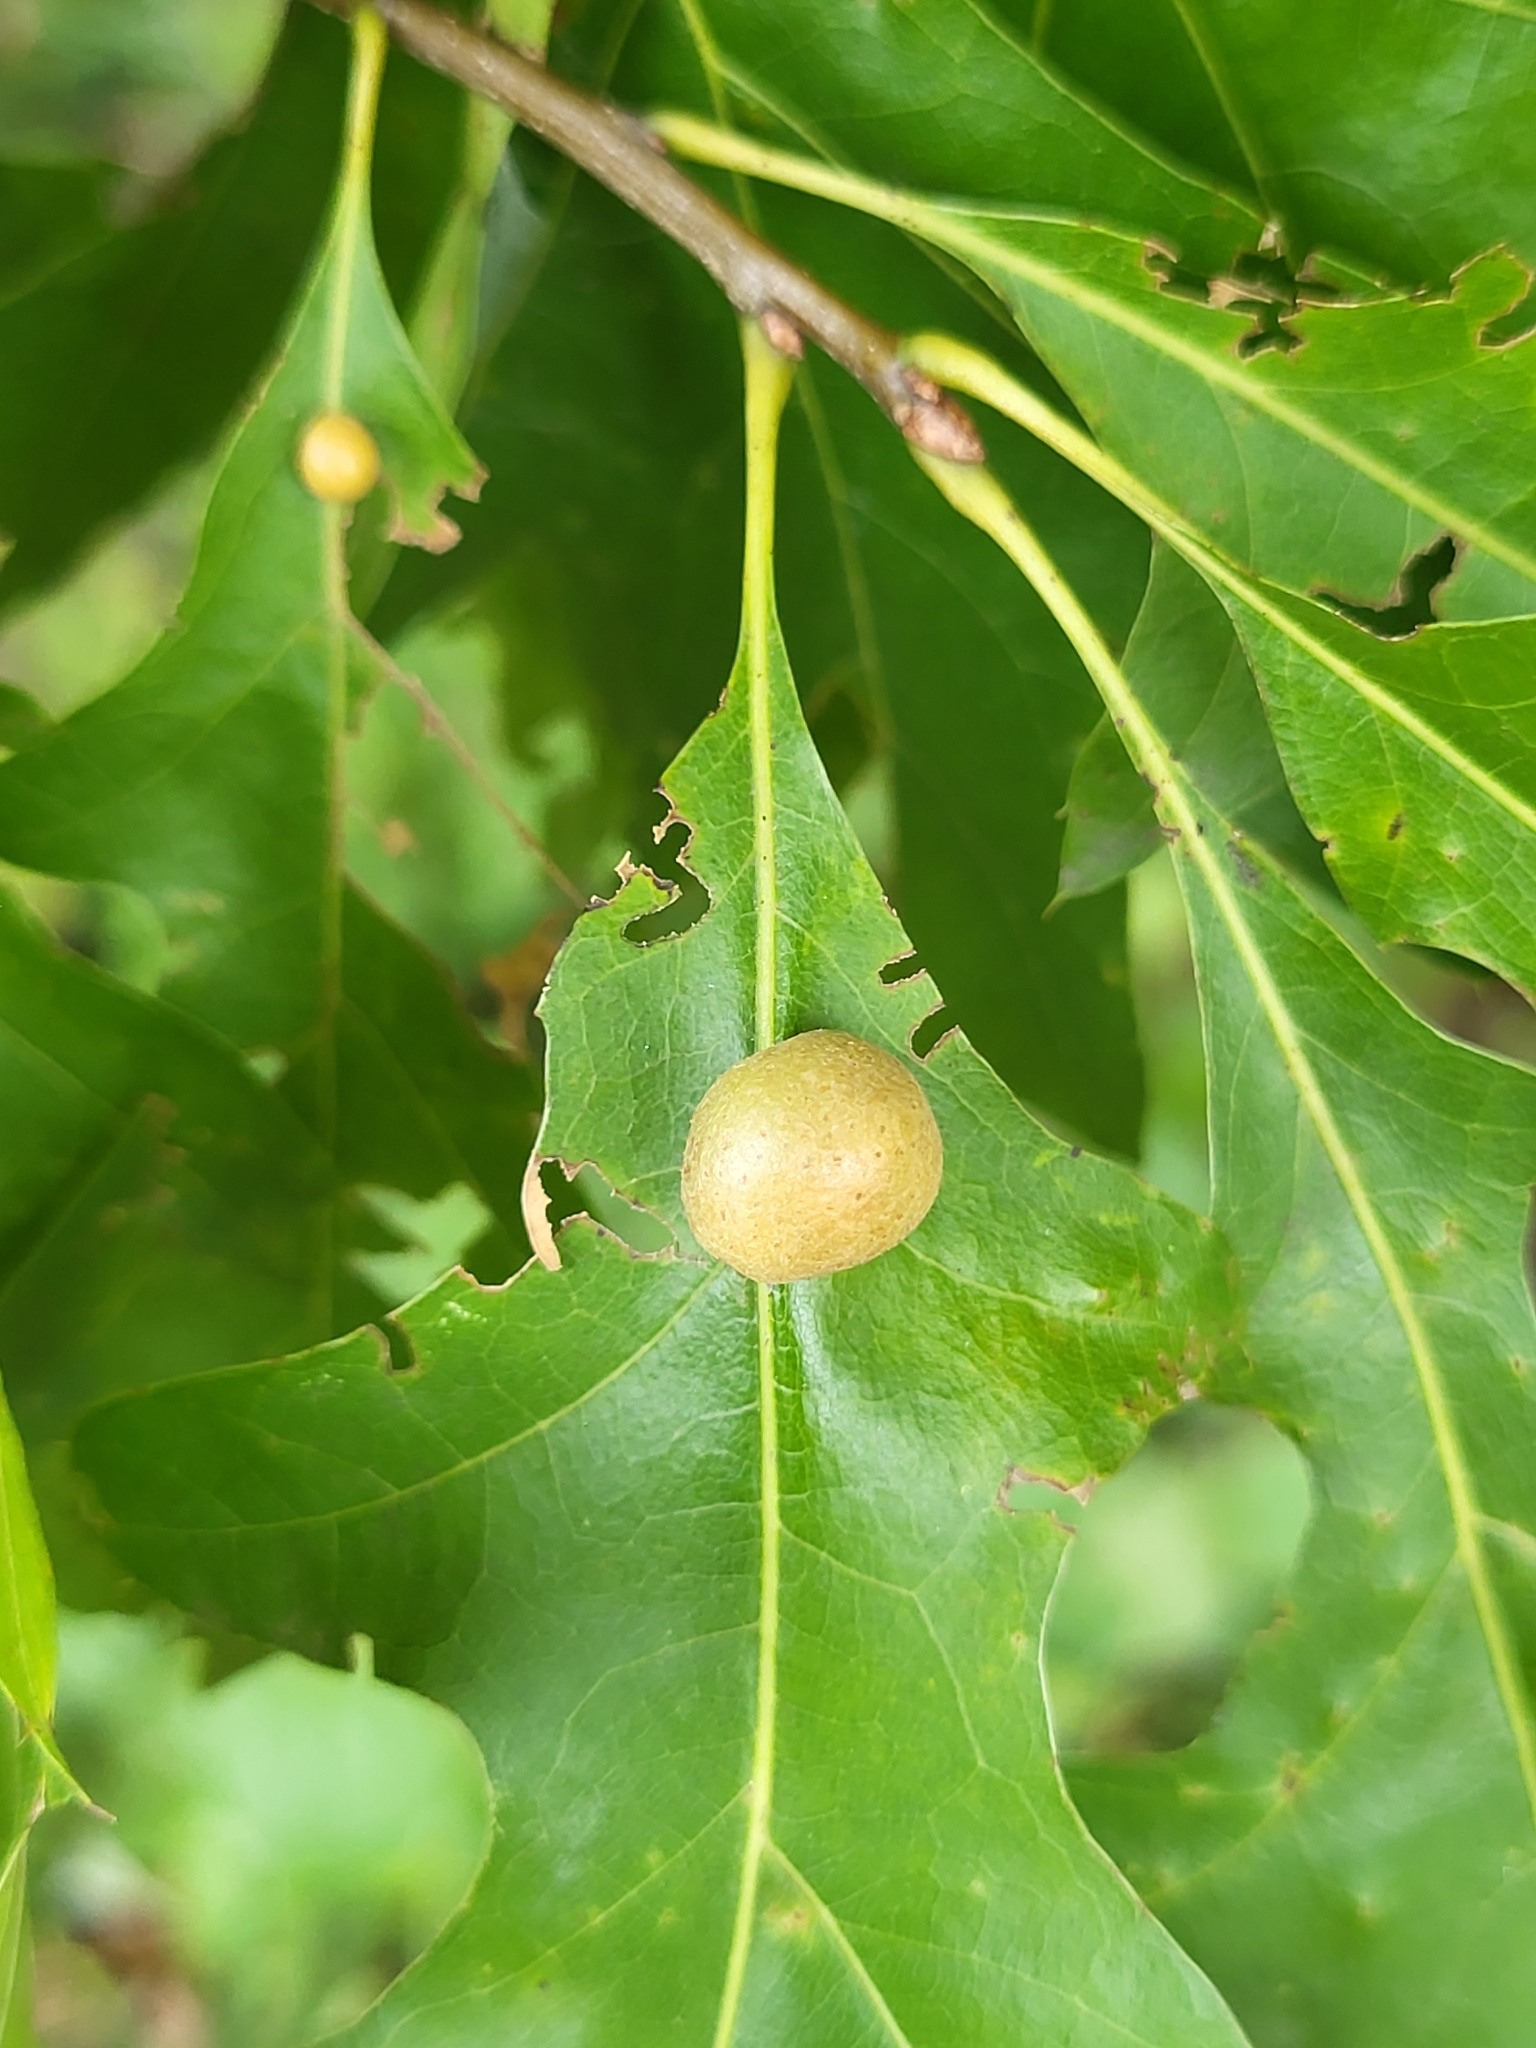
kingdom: Animalia
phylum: Arthropoda
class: Insecta
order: Diptera
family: Cecidomyiidae
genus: Polystepha
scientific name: Polystepha pilulae
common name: Oak leaf gall midge
